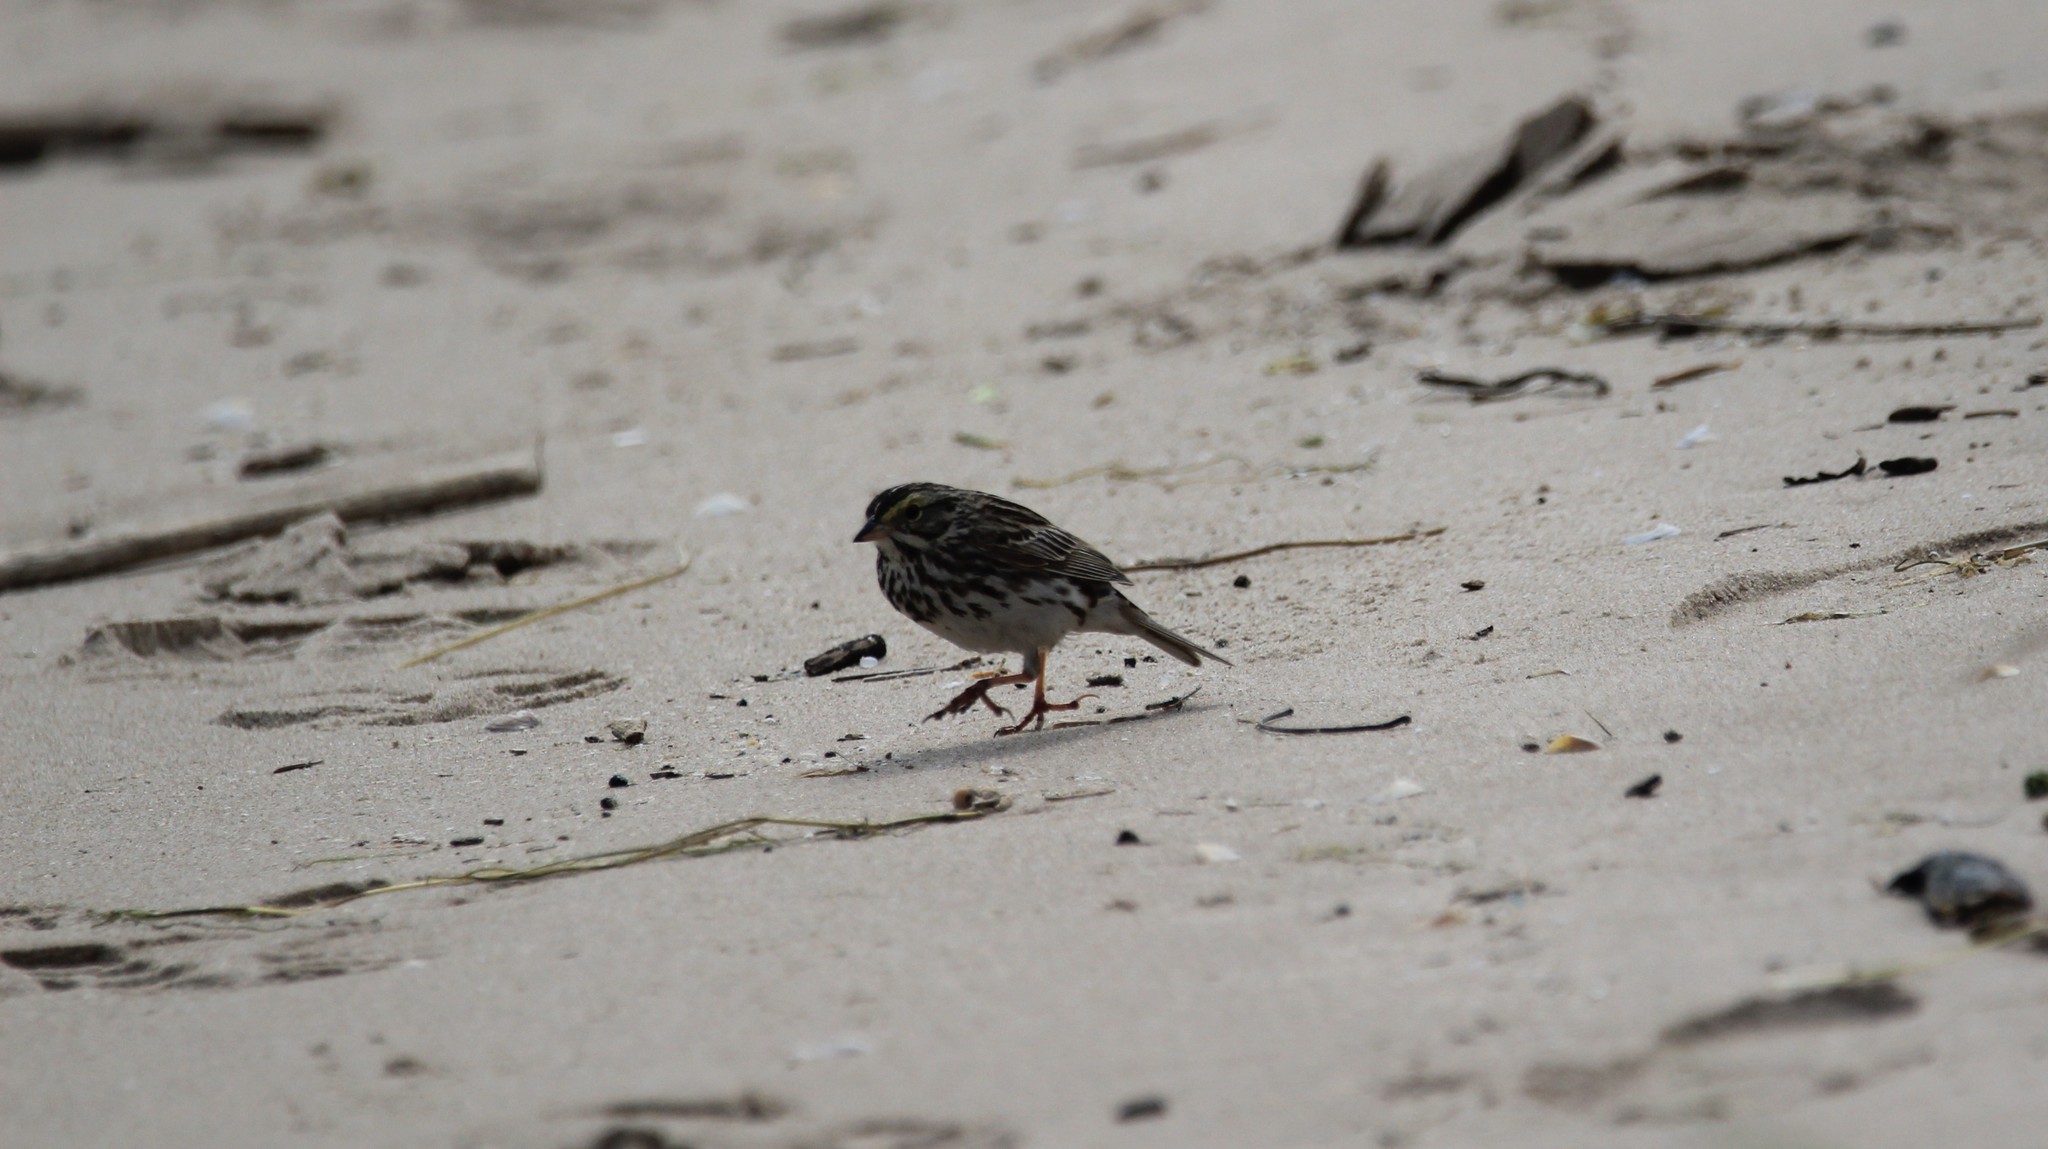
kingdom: Animalia
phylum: Chordata
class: Aves
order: Passeriformes
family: Passerellidae
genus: Passerculus
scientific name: Passerculus sandwichensis
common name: Savannah sparrow
